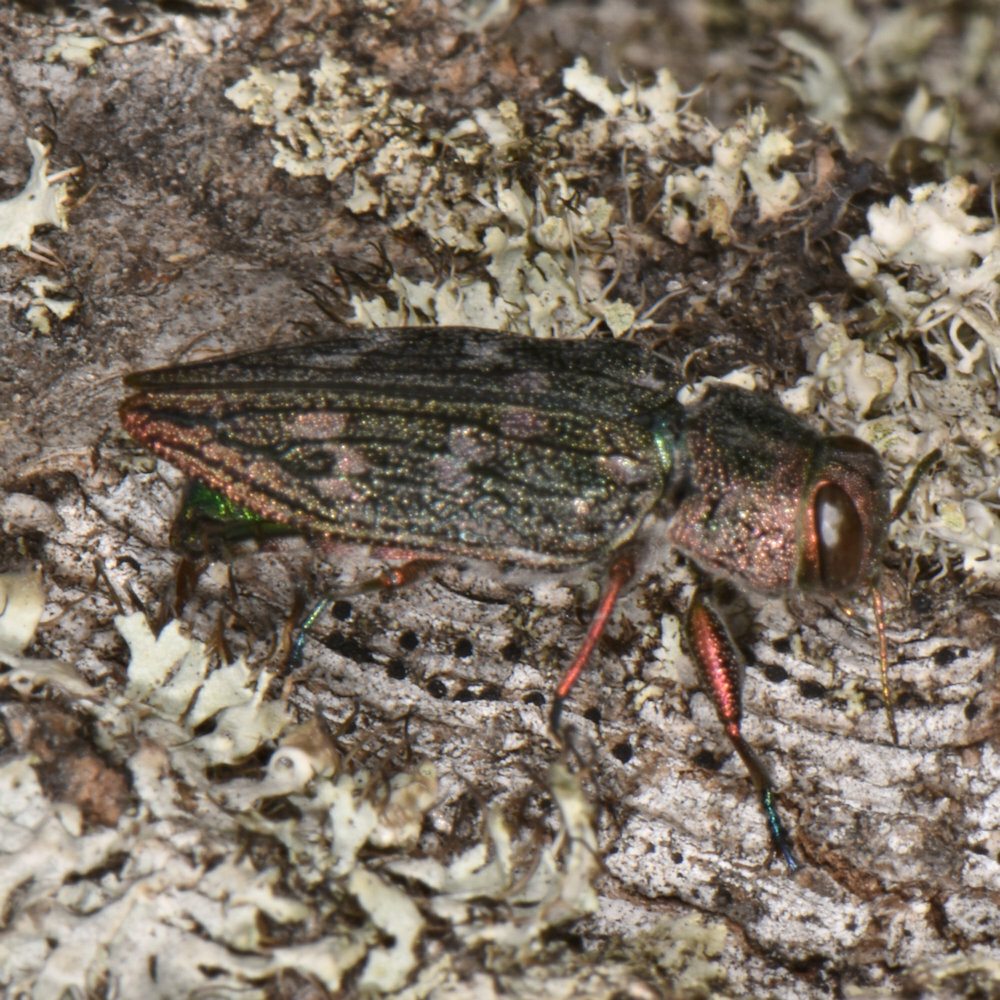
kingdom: Animalia
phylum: Arthropoda
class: Insecta
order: Coleoptera
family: Buprestidae
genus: Chrysobothris
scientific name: Chrysobothris femorata
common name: Flat-headed apple tree borer
